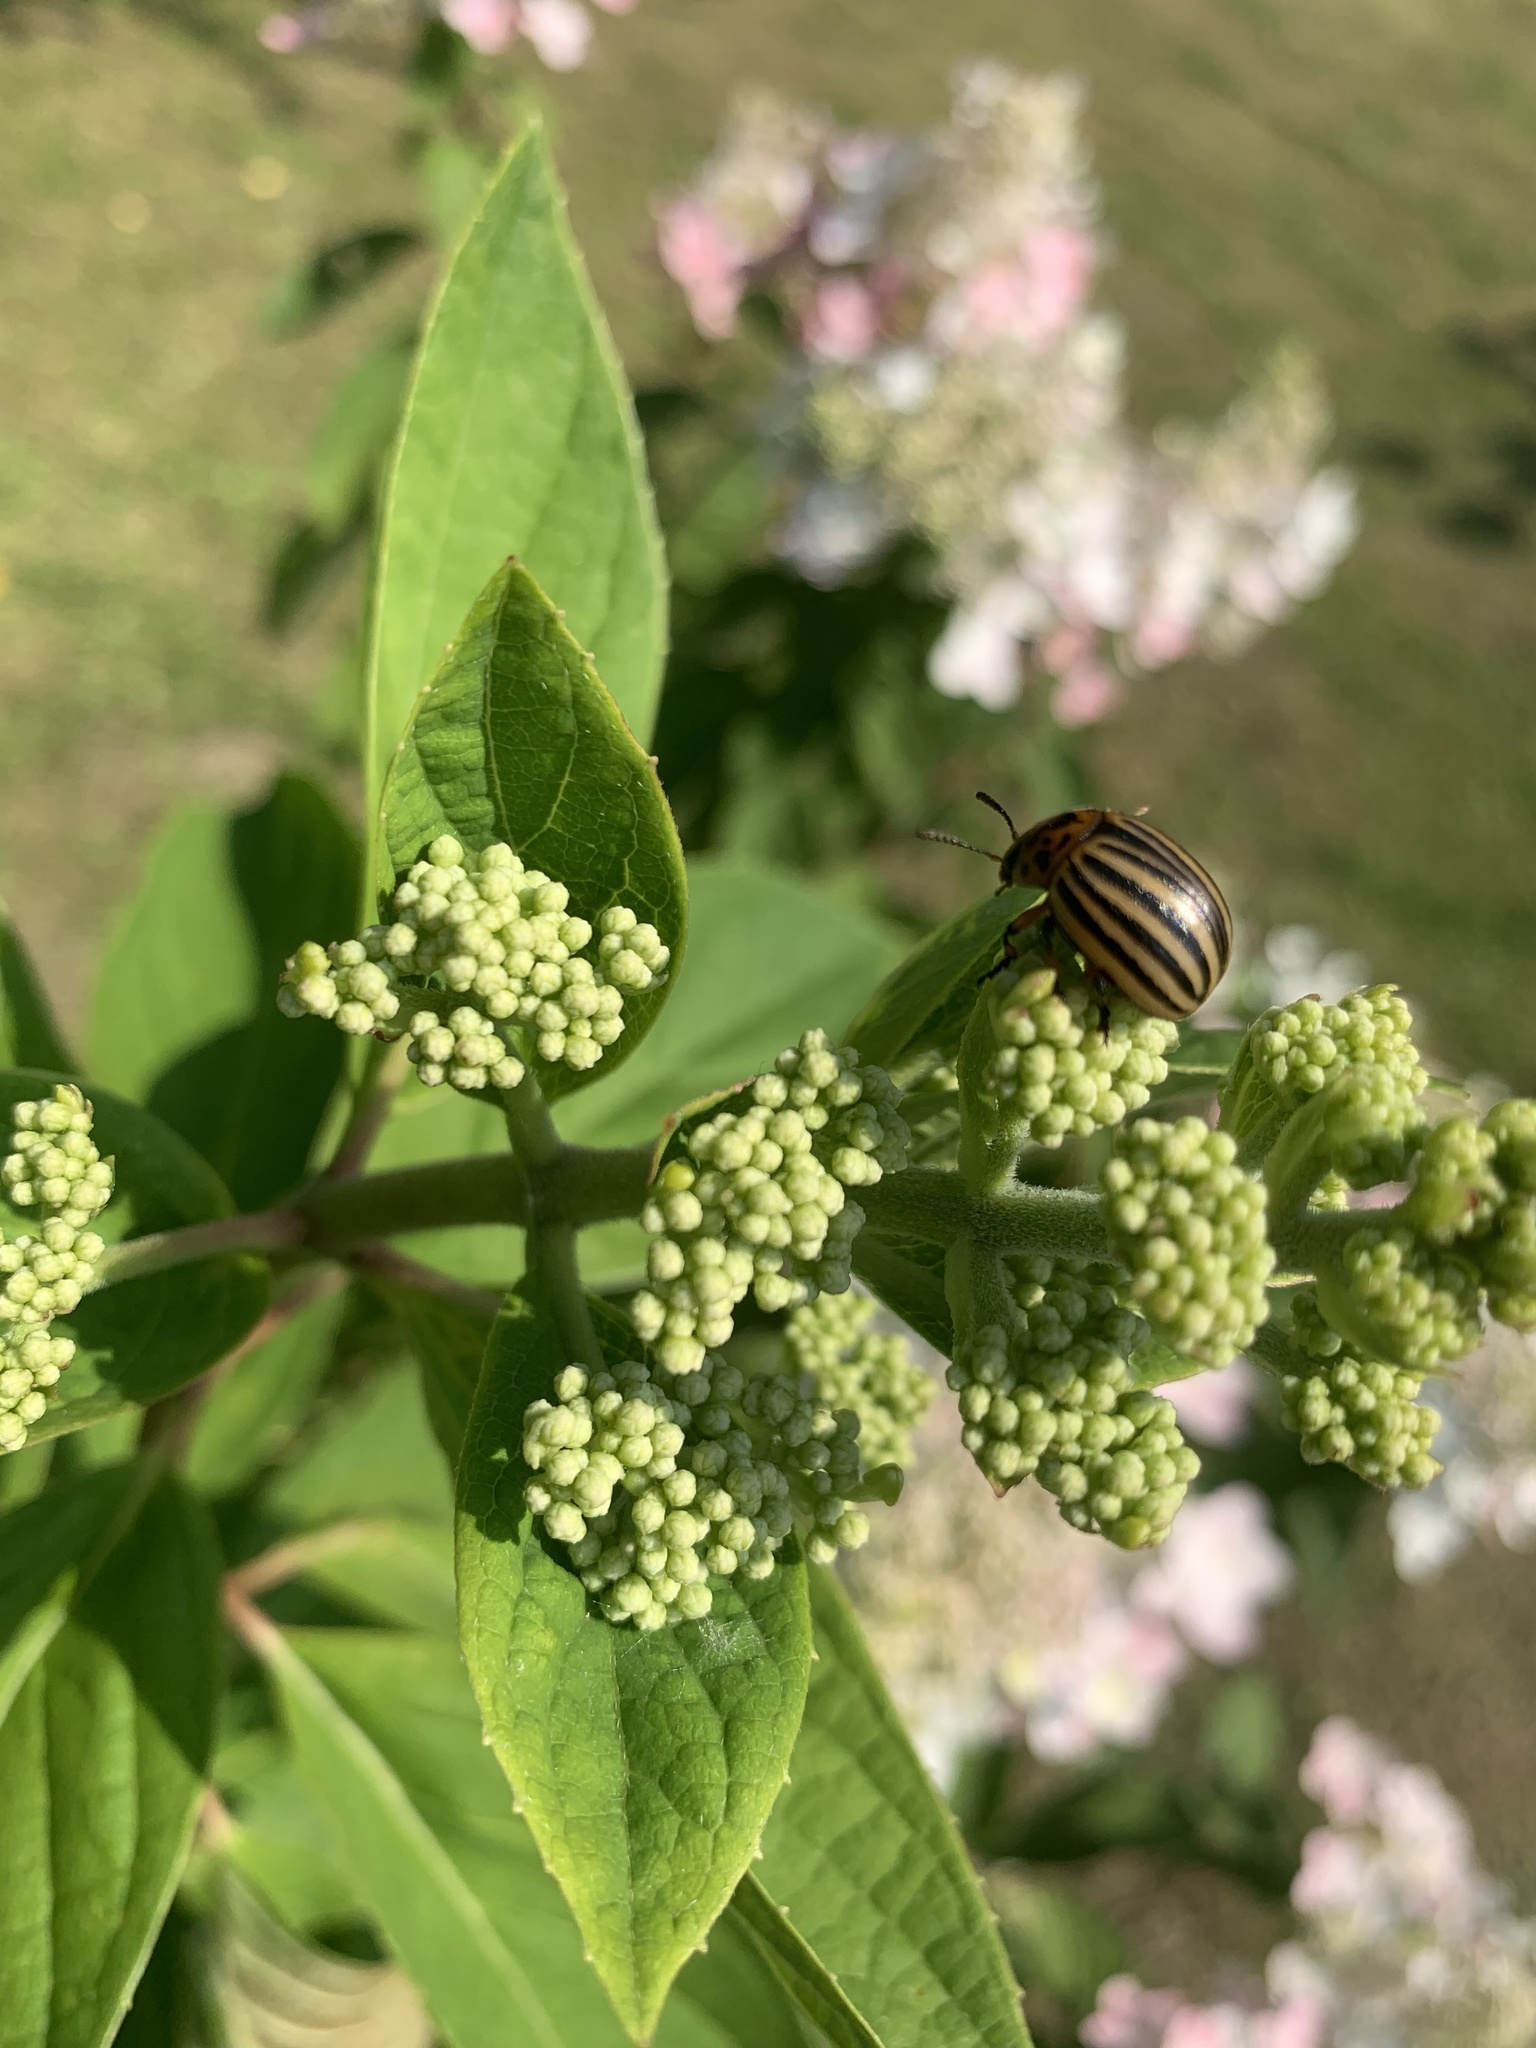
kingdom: Animalia
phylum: Arthropoda
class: Insecta
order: Coleoptera
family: Chrysomelidae
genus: Leptinotarsa
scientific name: Leptinotarsa decemlineata
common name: Colorado potato beetle
